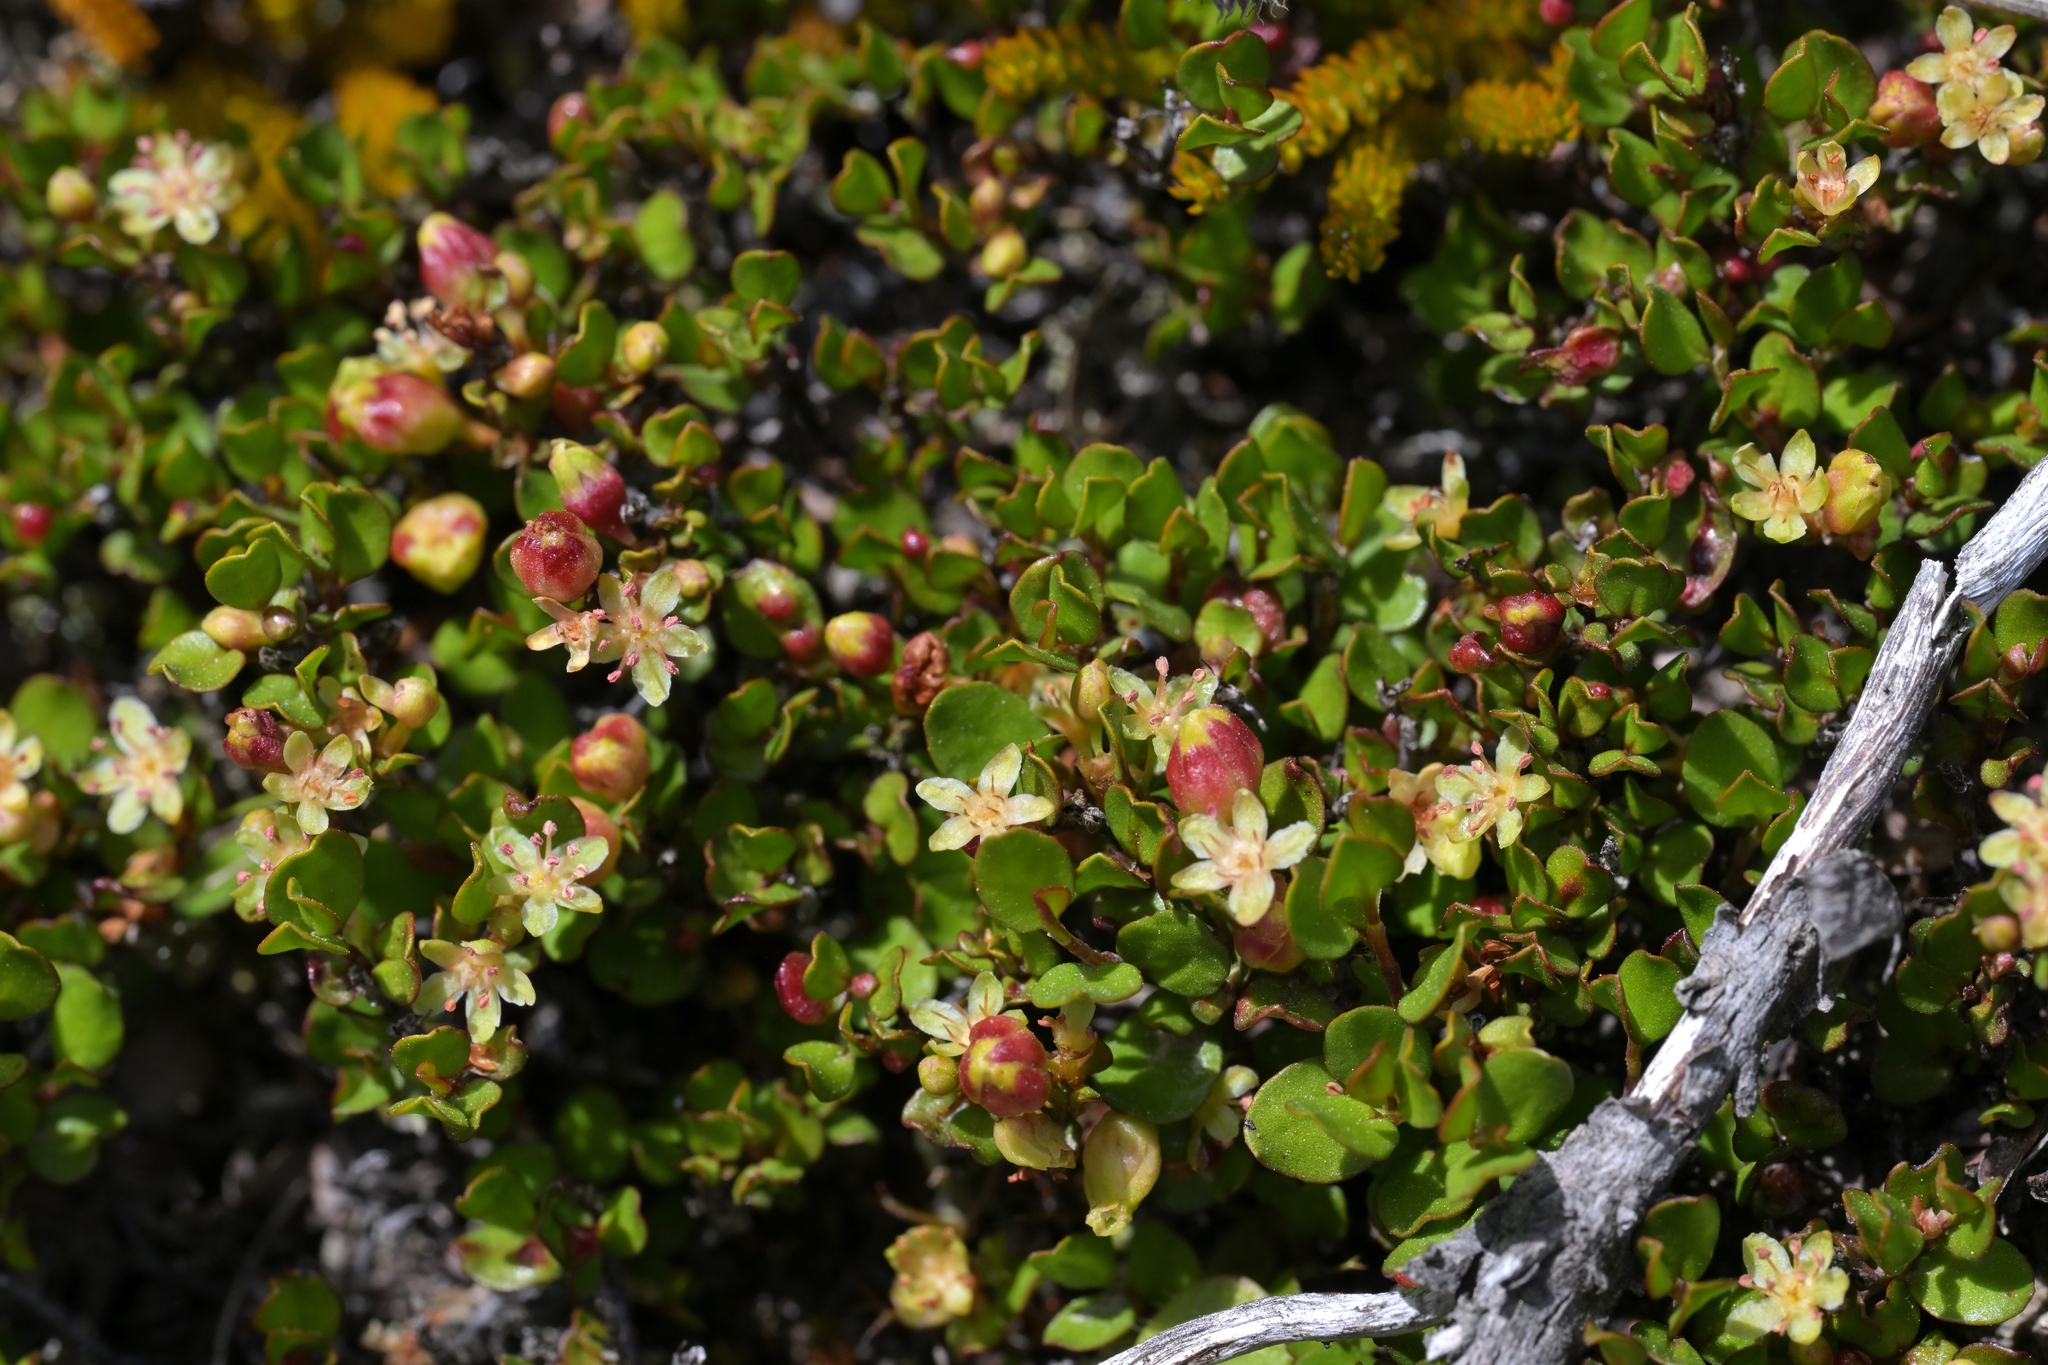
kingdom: Plantae
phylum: Tracheophyta
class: Magnoliopsida
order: Caryophyllales
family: Polygonaceae
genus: Muehlenbeckia
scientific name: Muehlenbeckia axillaris
